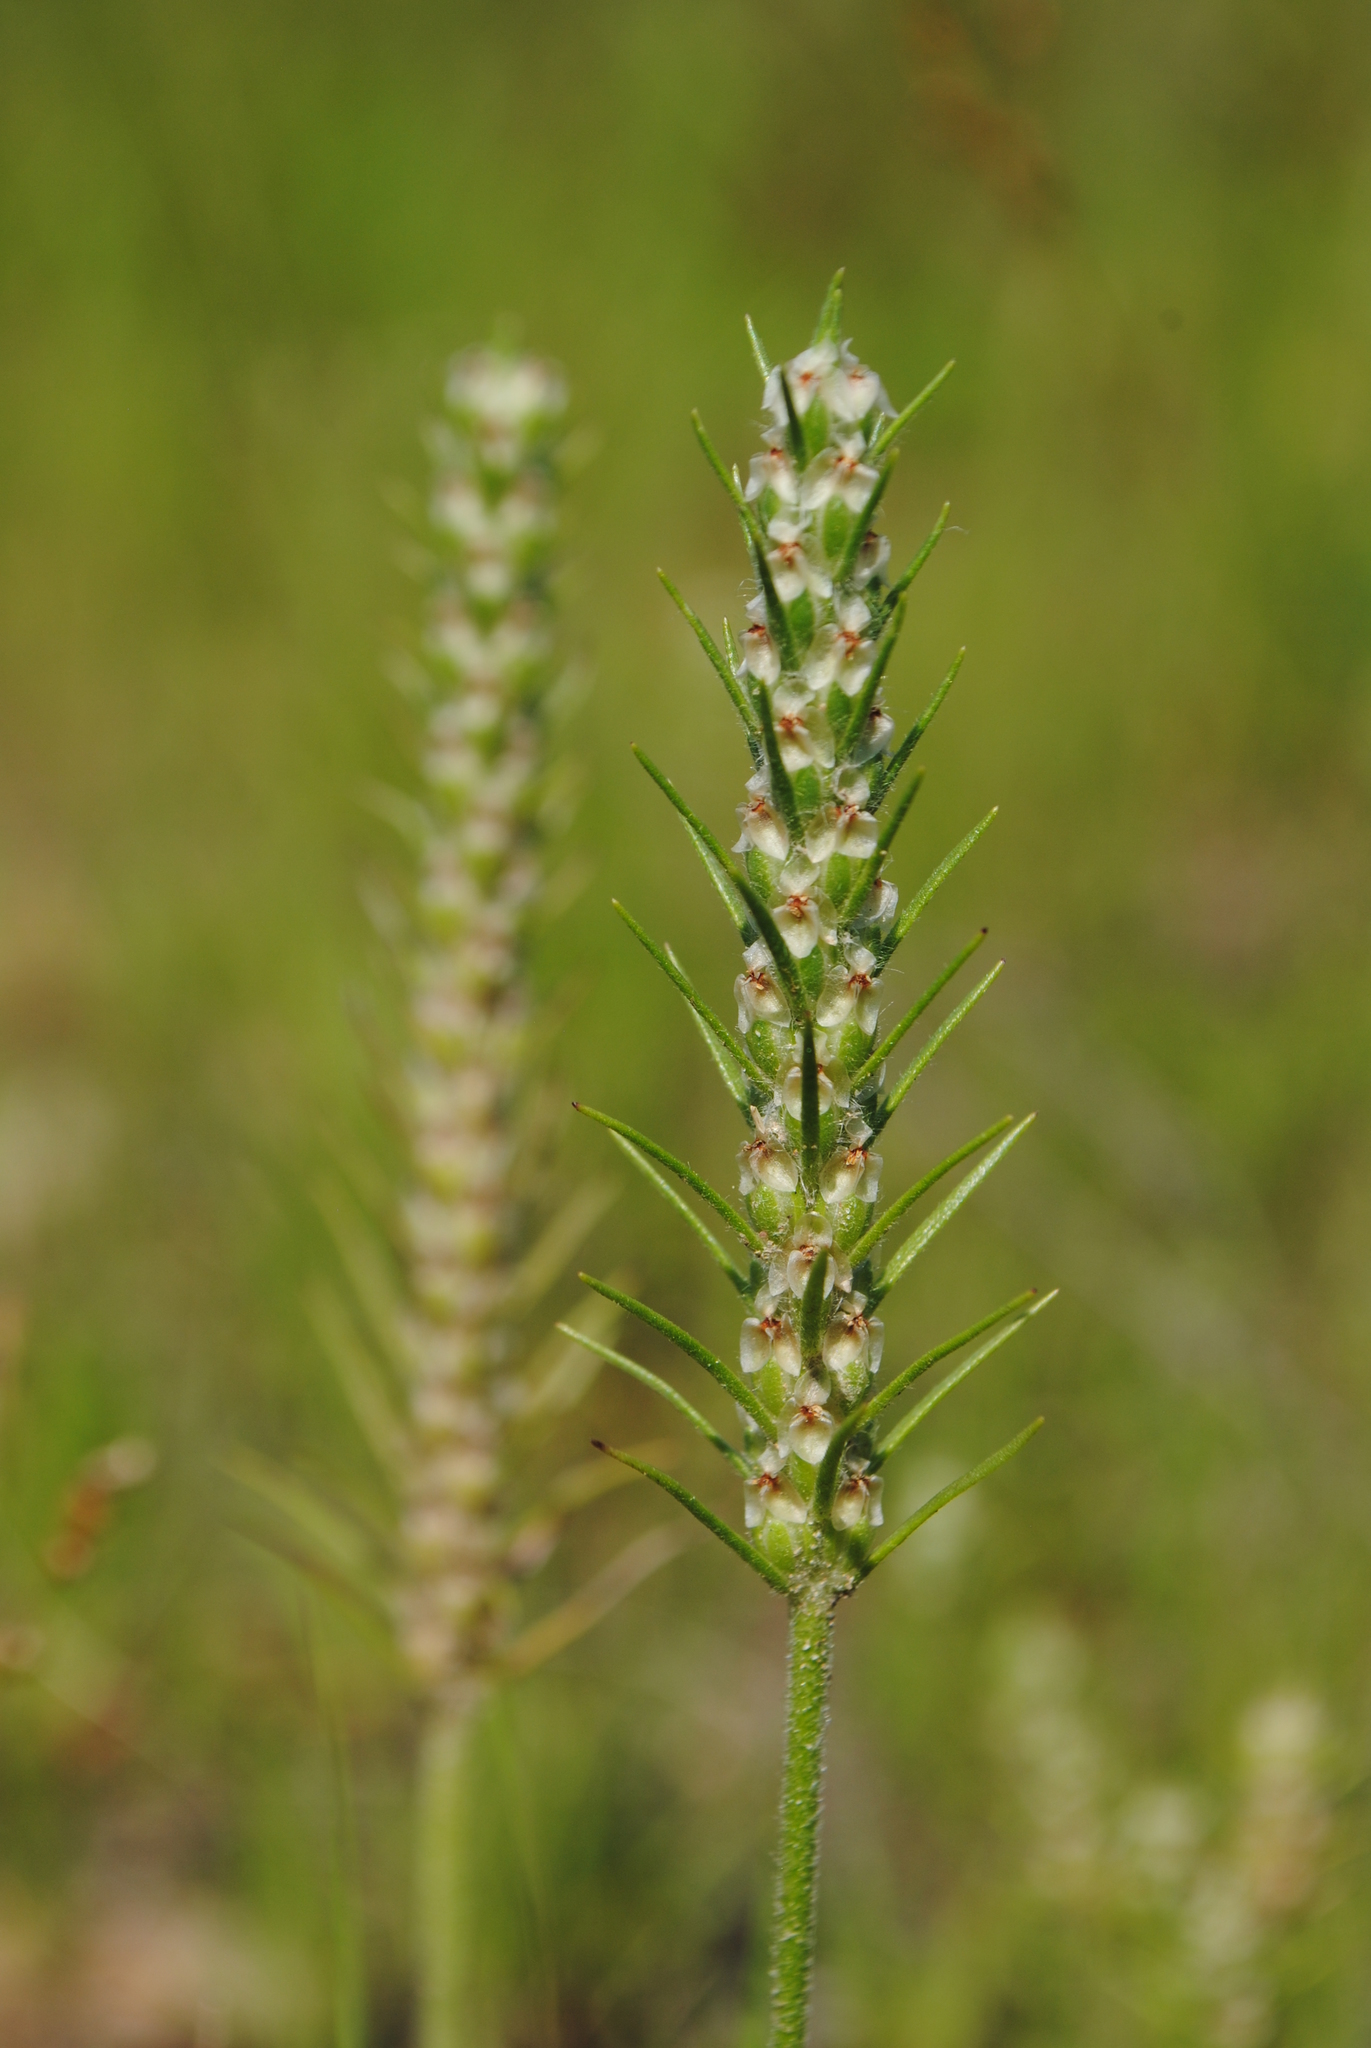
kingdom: Plantae
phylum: Tracheophyta
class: Magnoliopsida
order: Lamiales
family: Plantaginaceae
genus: Plantago
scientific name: Plantago aristata
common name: Bracted plantain
